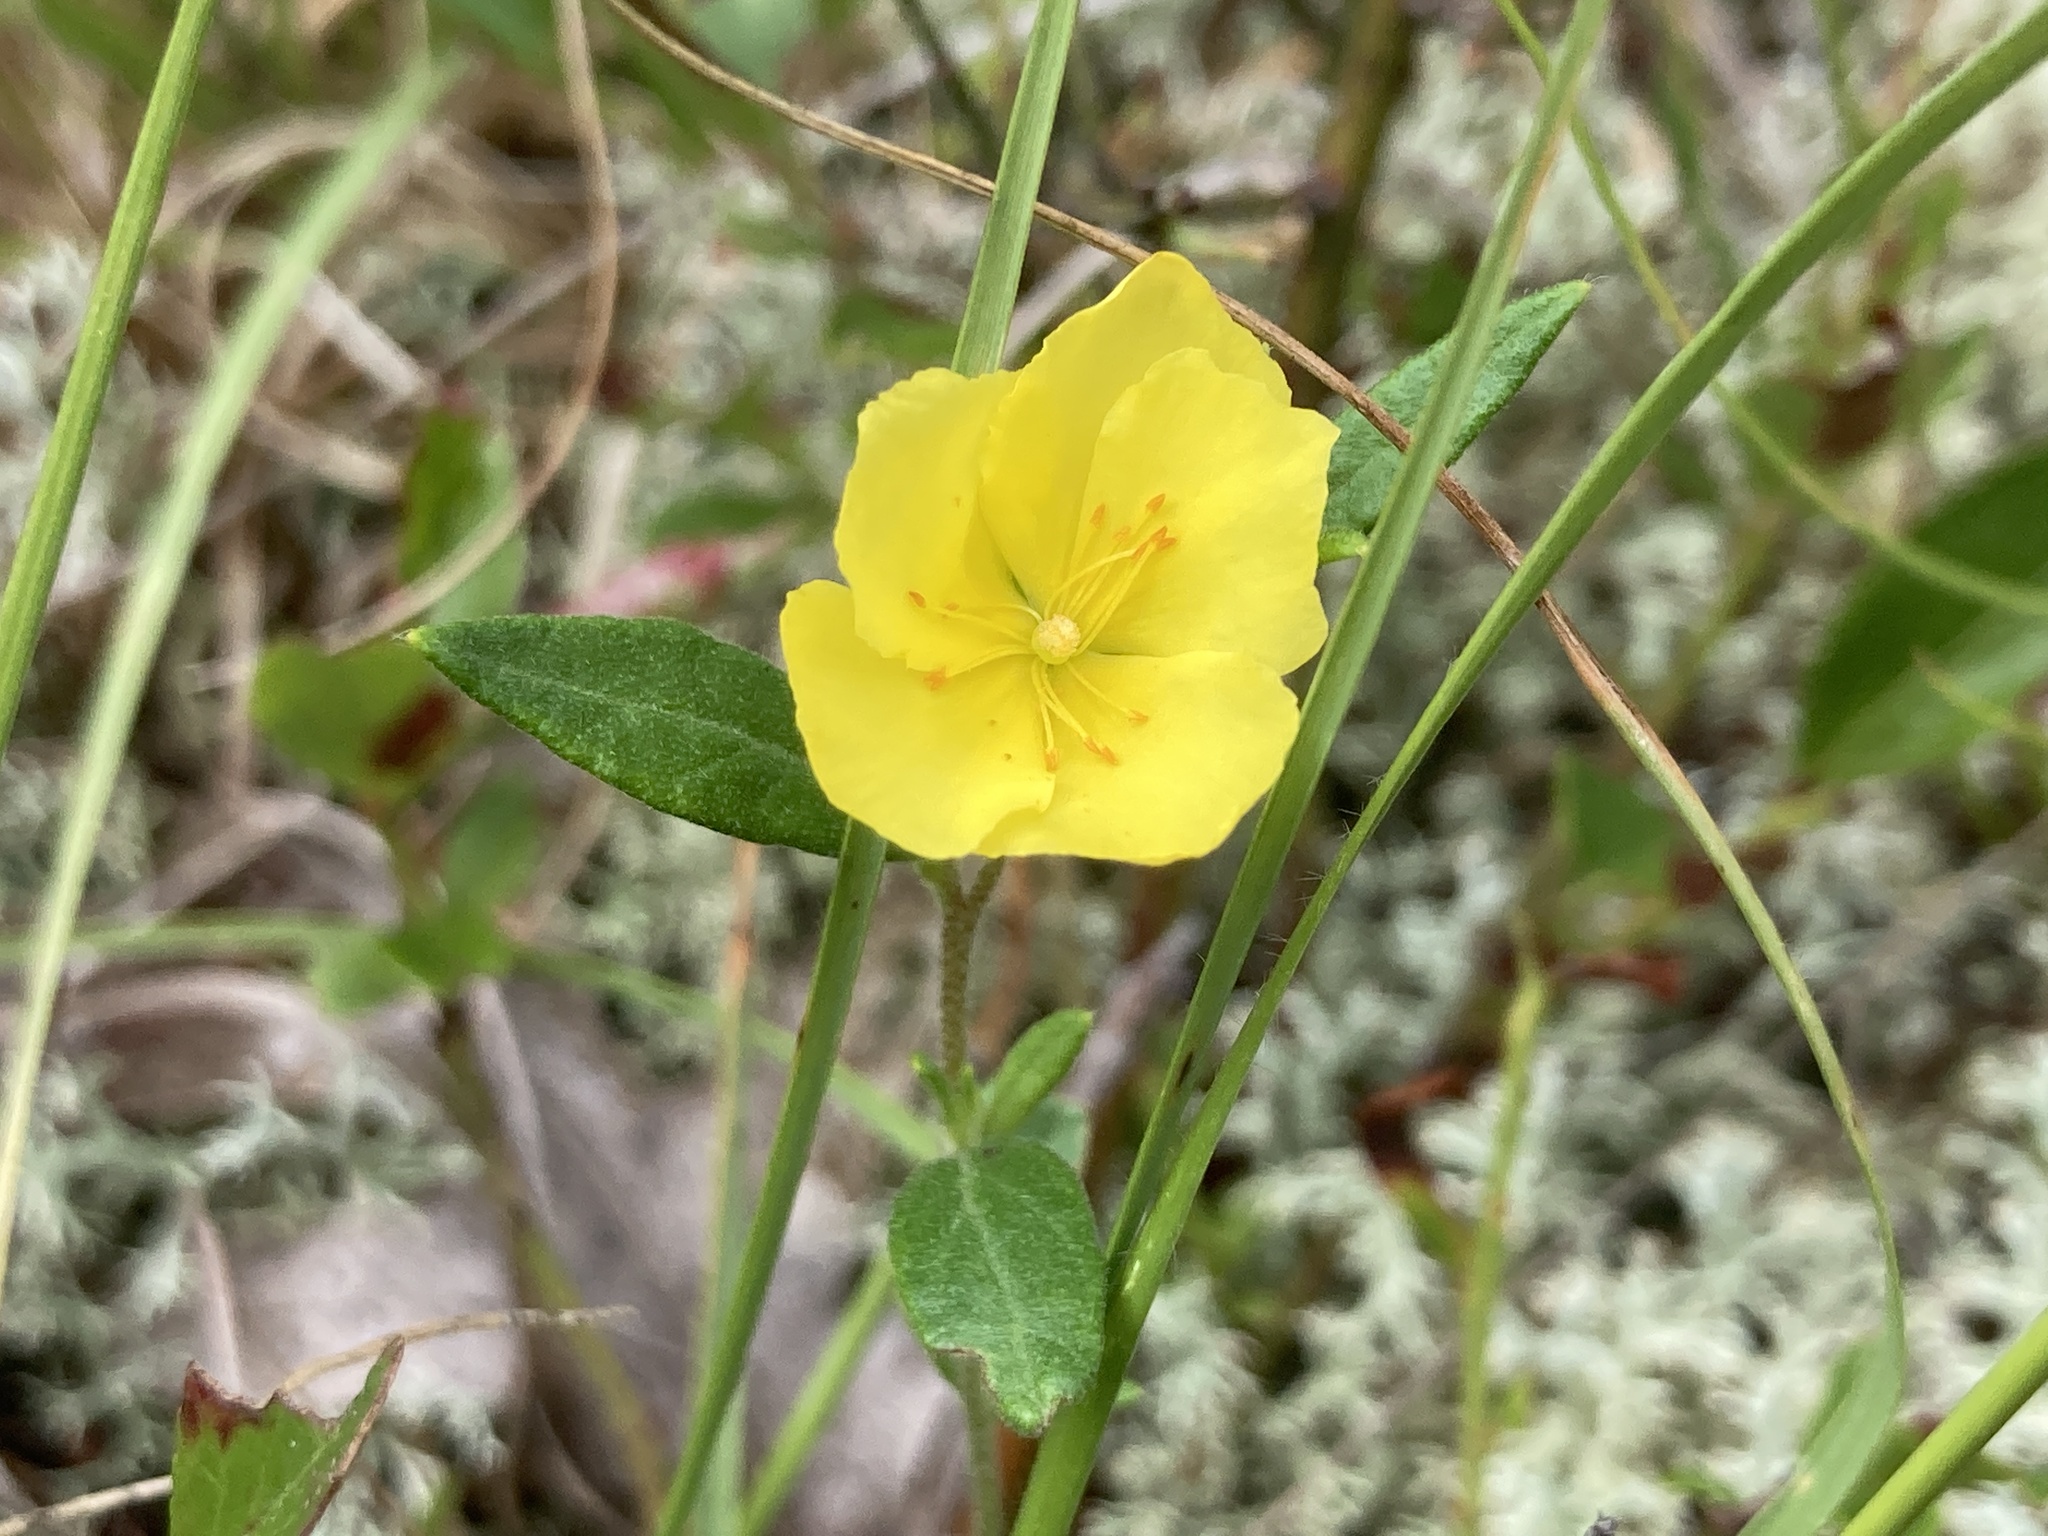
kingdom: Plantae
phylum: Tracheophyta
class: Magnoliopsida
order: Malvales
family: Cistaceae
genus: Crocanthemum
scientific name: Crocanthemum canadense
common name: Canada frostweed
